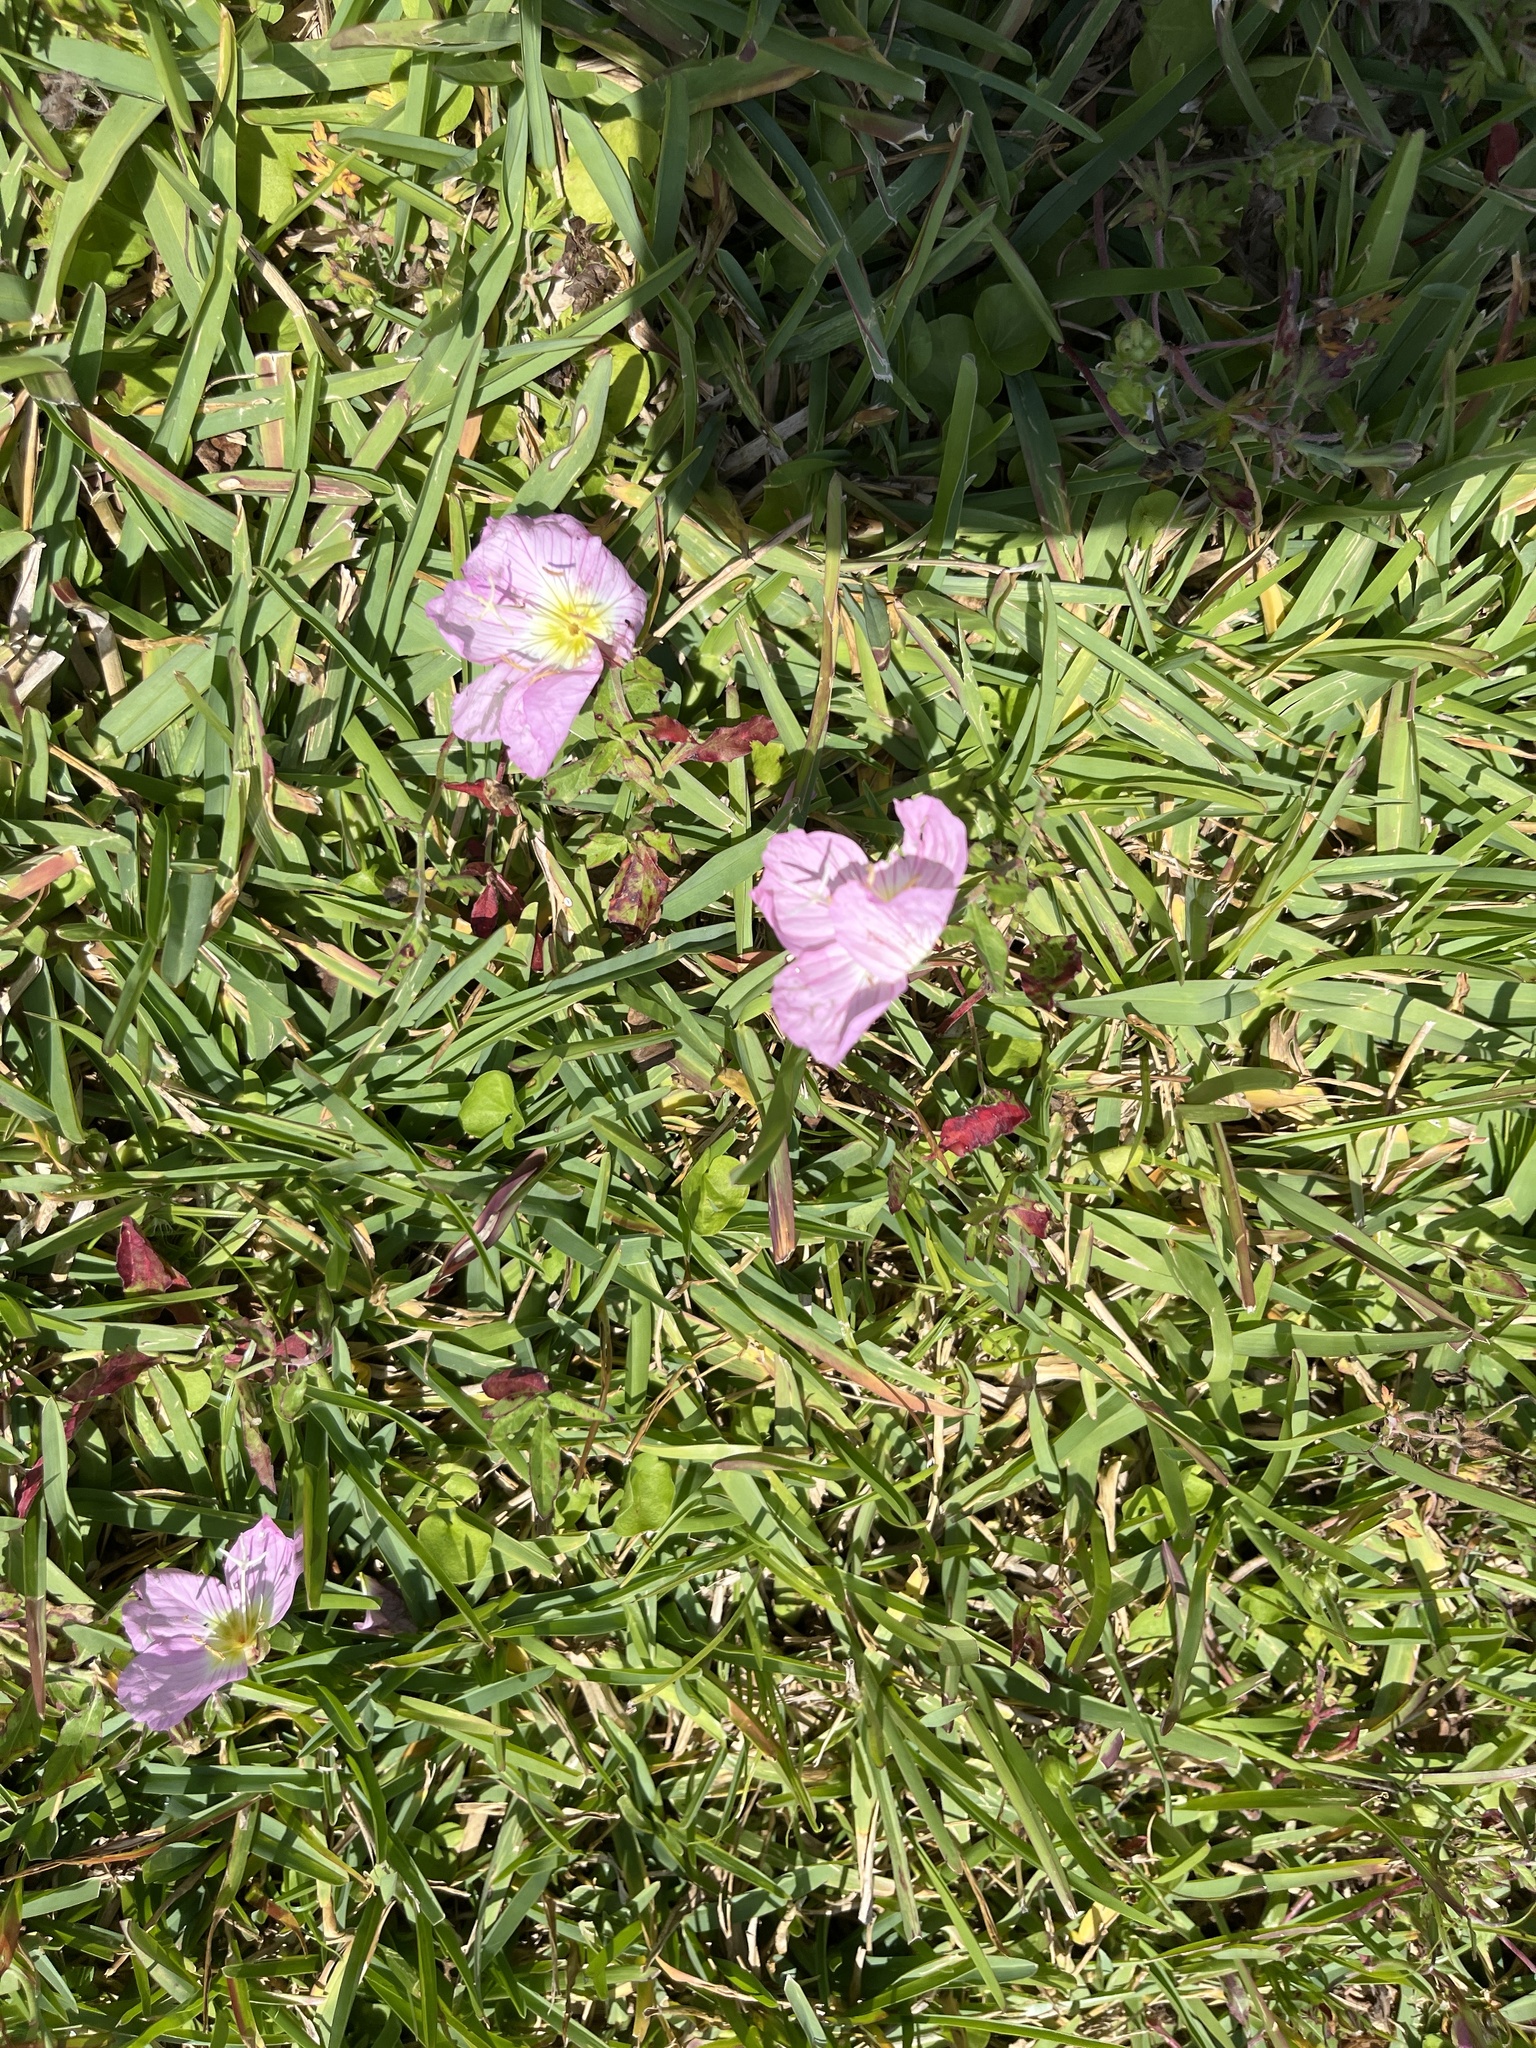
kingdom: Plantae
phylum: Tracheophyta
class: Magnoliopsida
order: Myrtales
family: Onagraceae
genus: Oenothera
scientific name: Oenothera speciosa
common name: White evening-primrose
